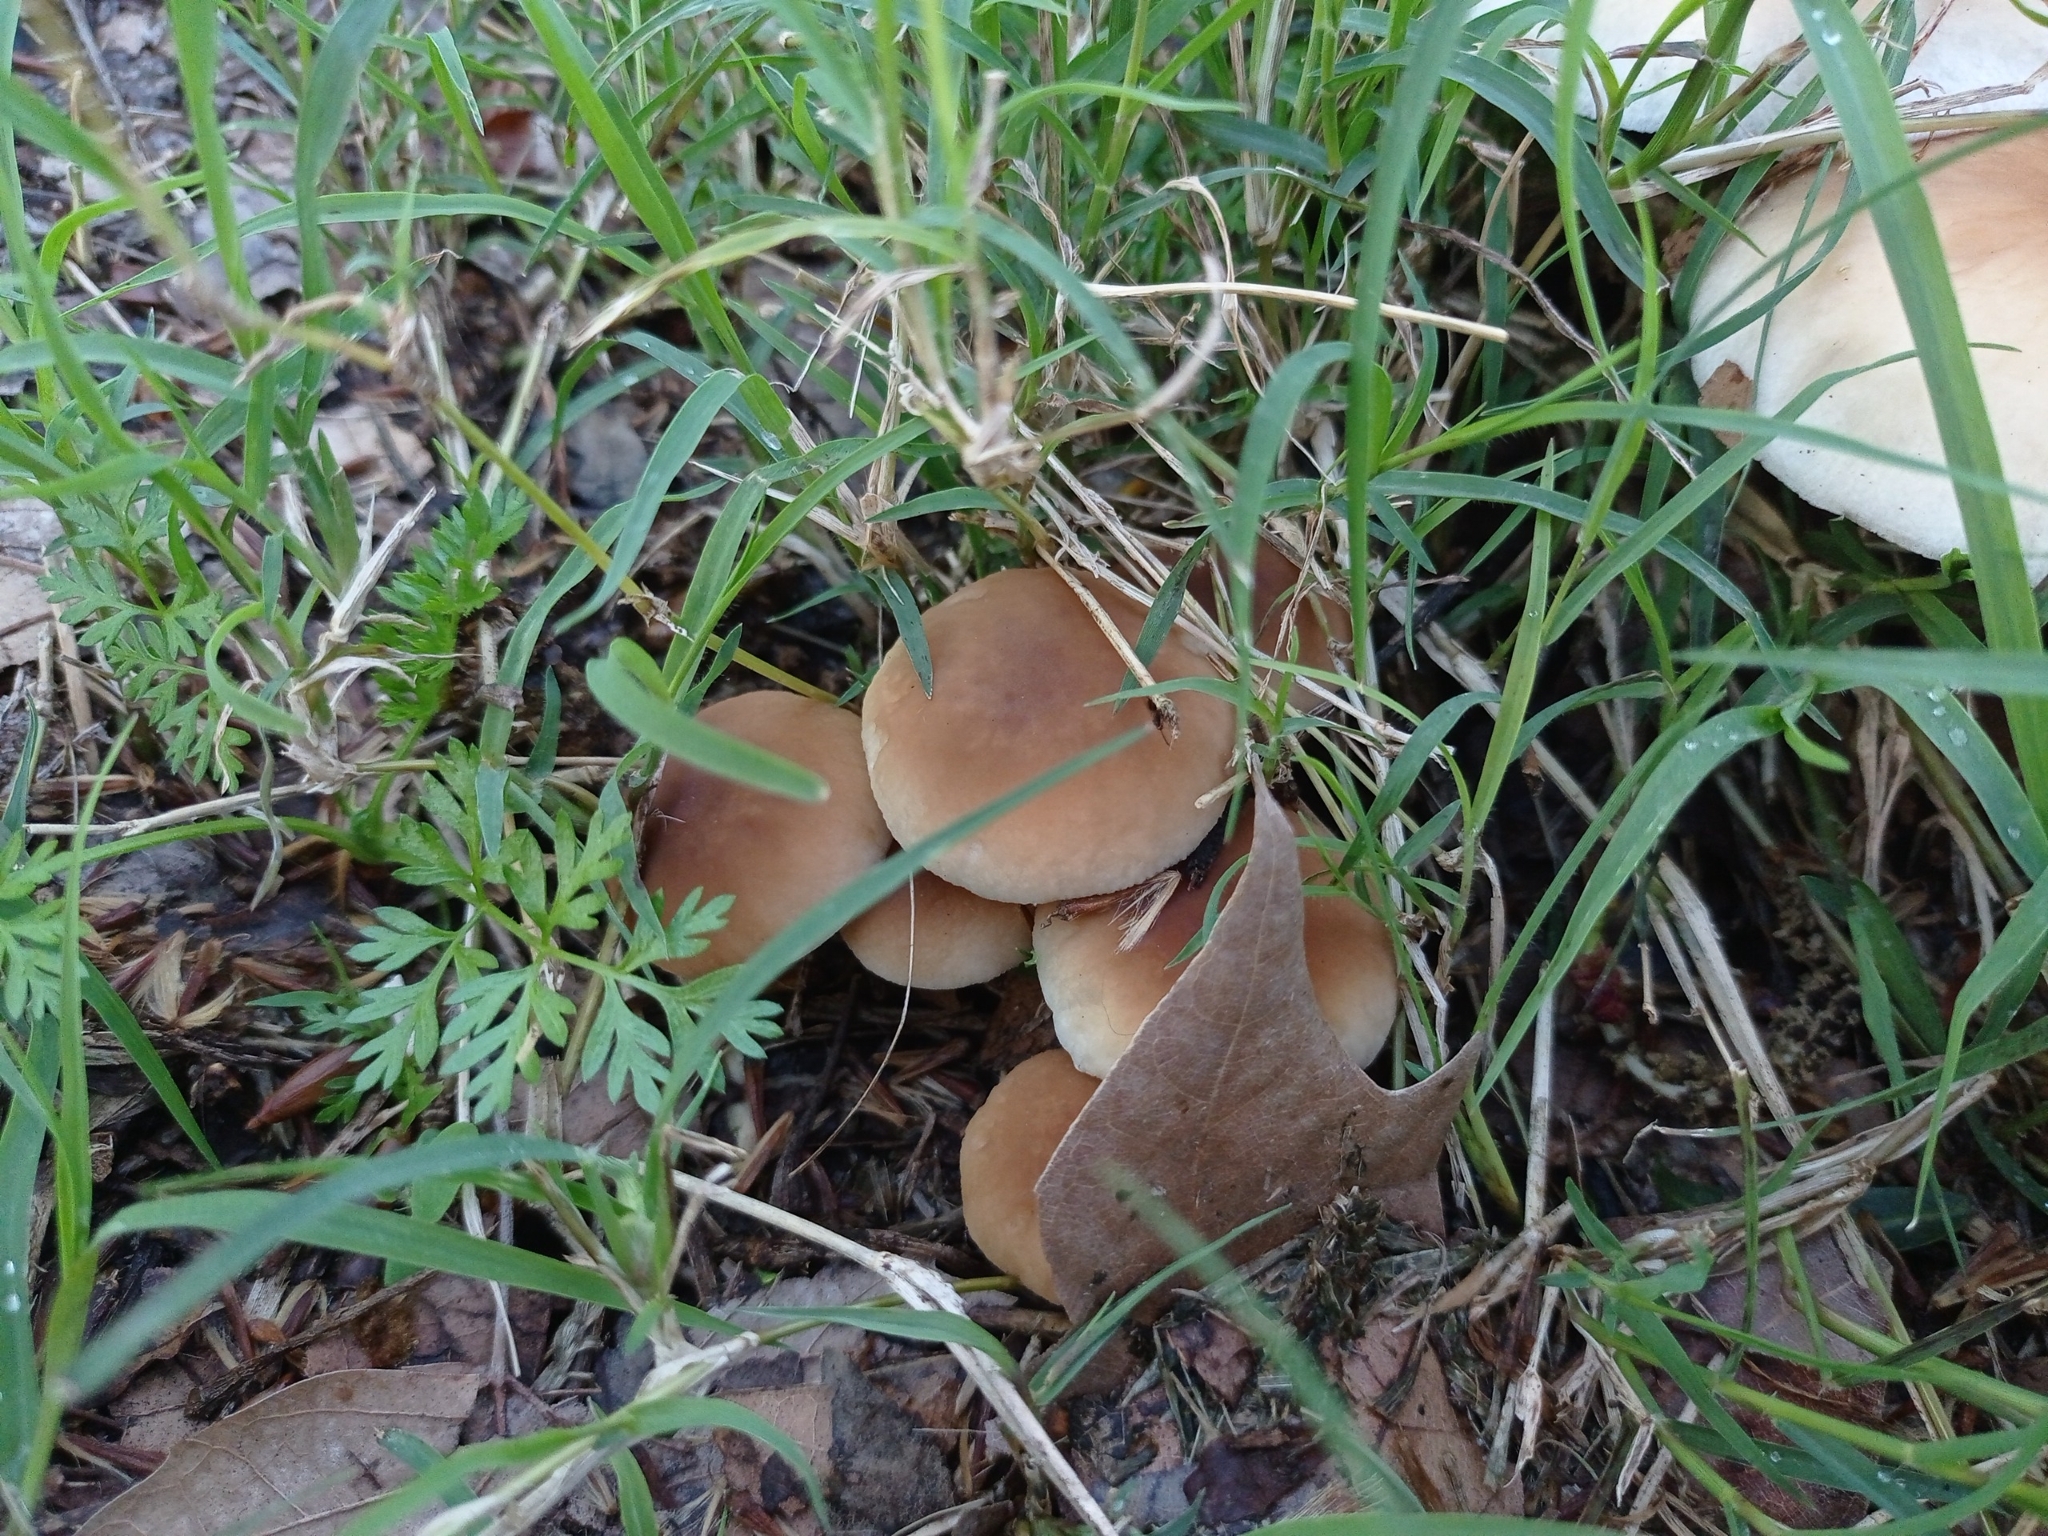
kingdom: Fungi
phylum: Basidiomycota
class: Agaricomycetes
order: Agaricales
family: Tubariaceae
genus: Cyclocybe
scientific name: Cyclocybe cylindracea
